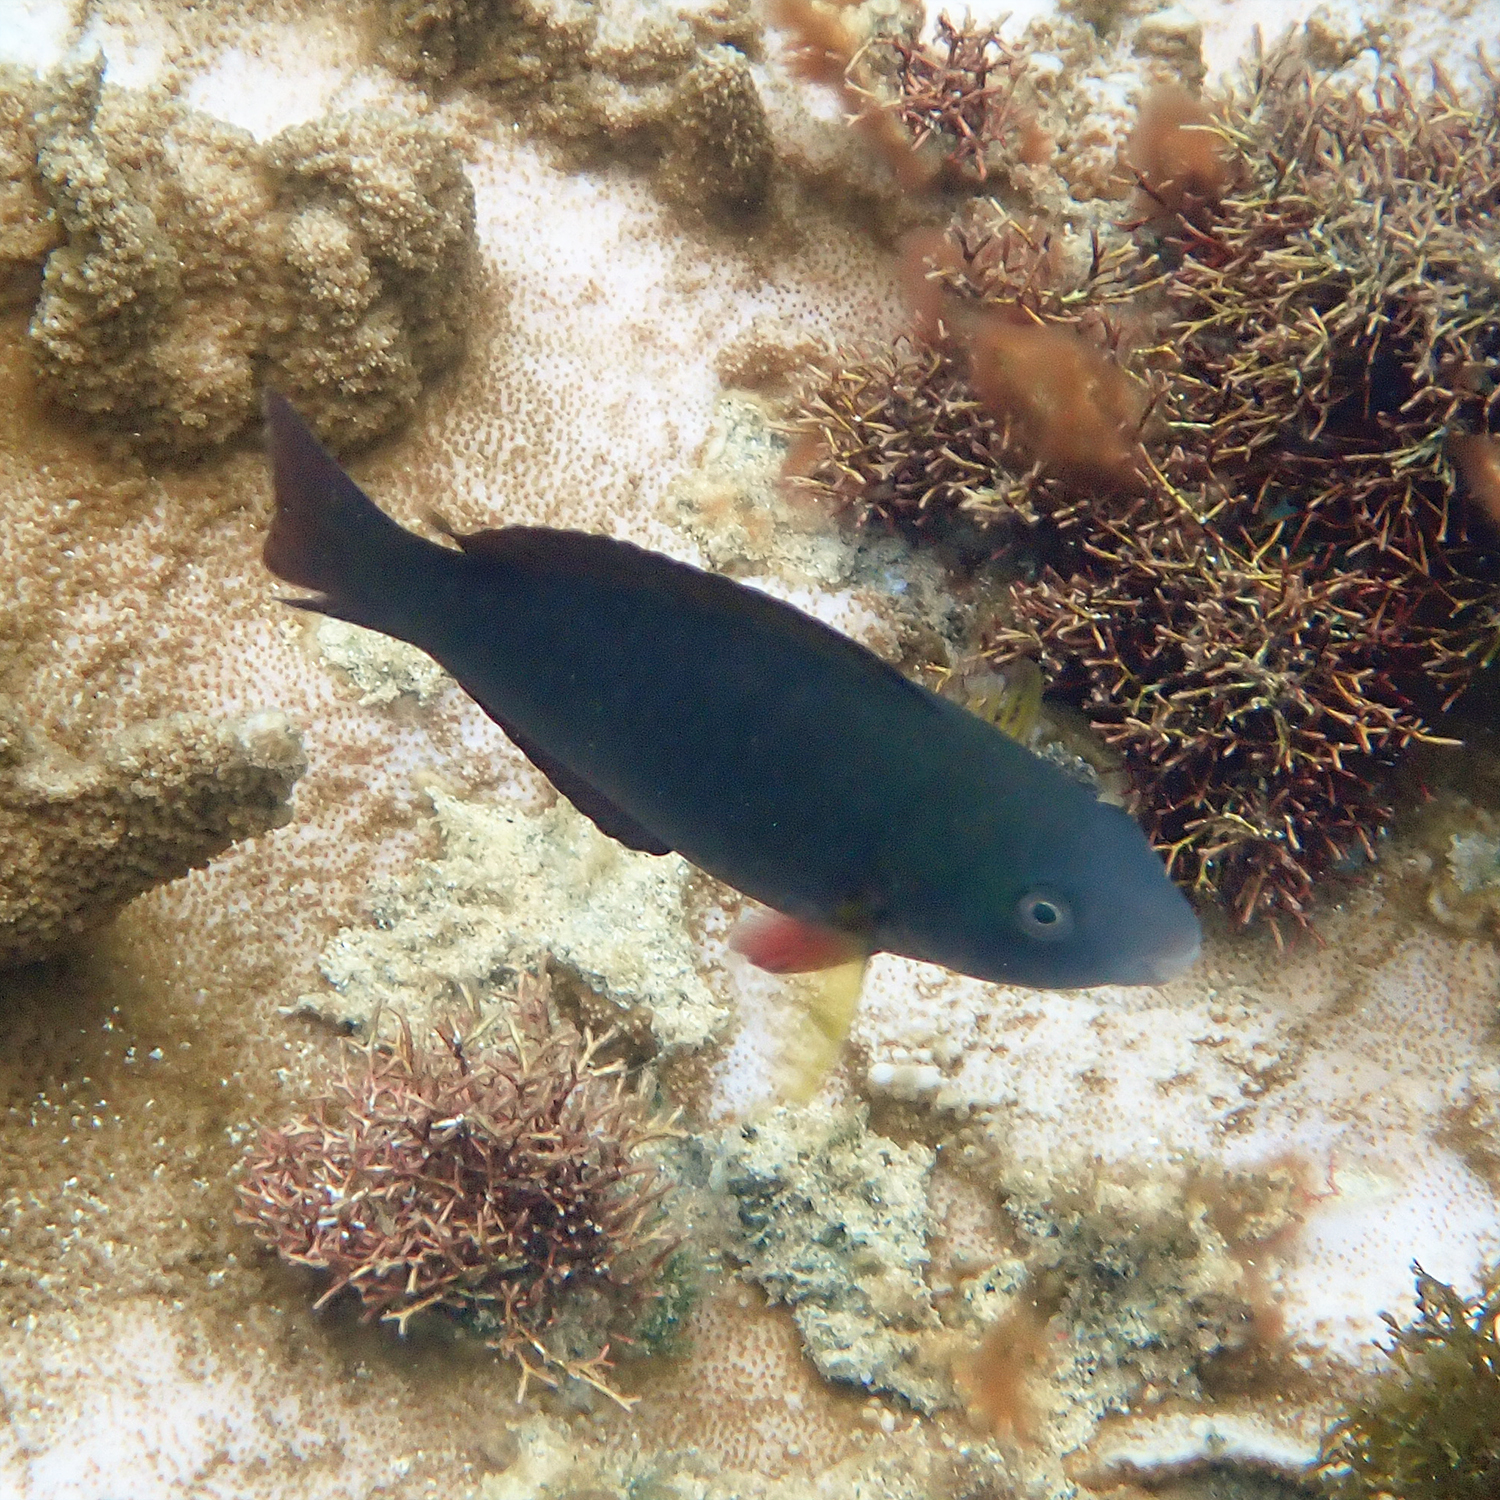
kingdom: Animalia
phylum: Chordata
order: Perciformes
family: Scaridae
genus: Scarus
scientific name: Scarus psittacus
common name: Palenose parrotfish
